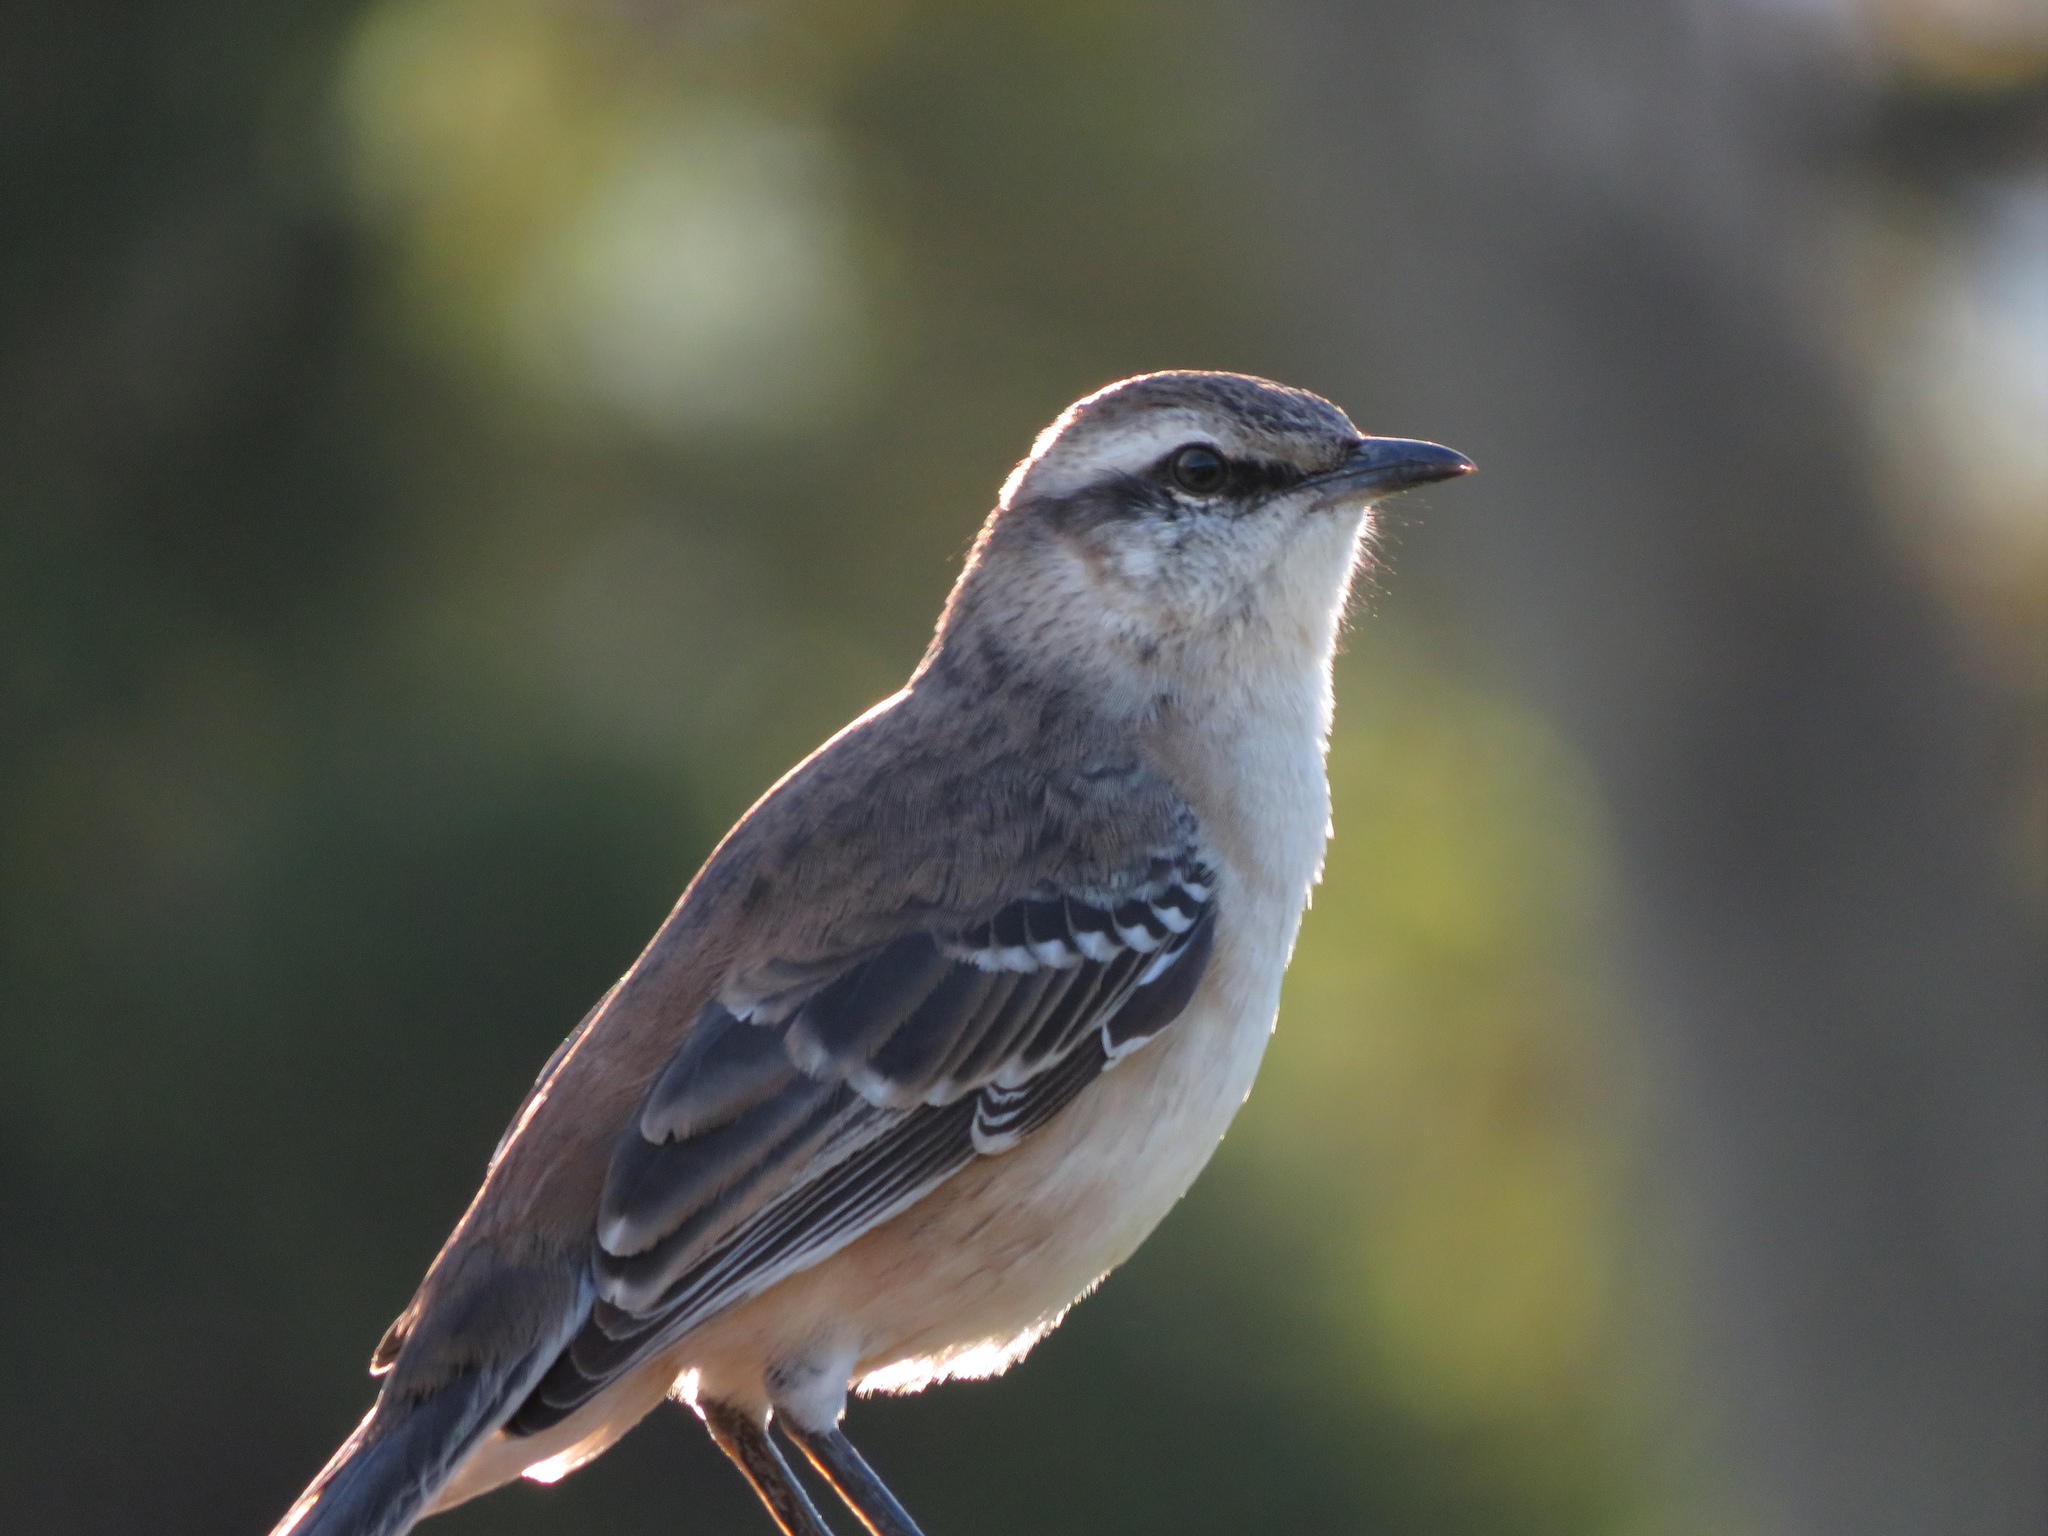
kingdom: Animalia
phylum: Chordata
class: Aves
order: Passeriformes
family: Mimidae
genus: Mimus
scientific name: Mimus saturninus
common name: Chalk-browed mockingbird
